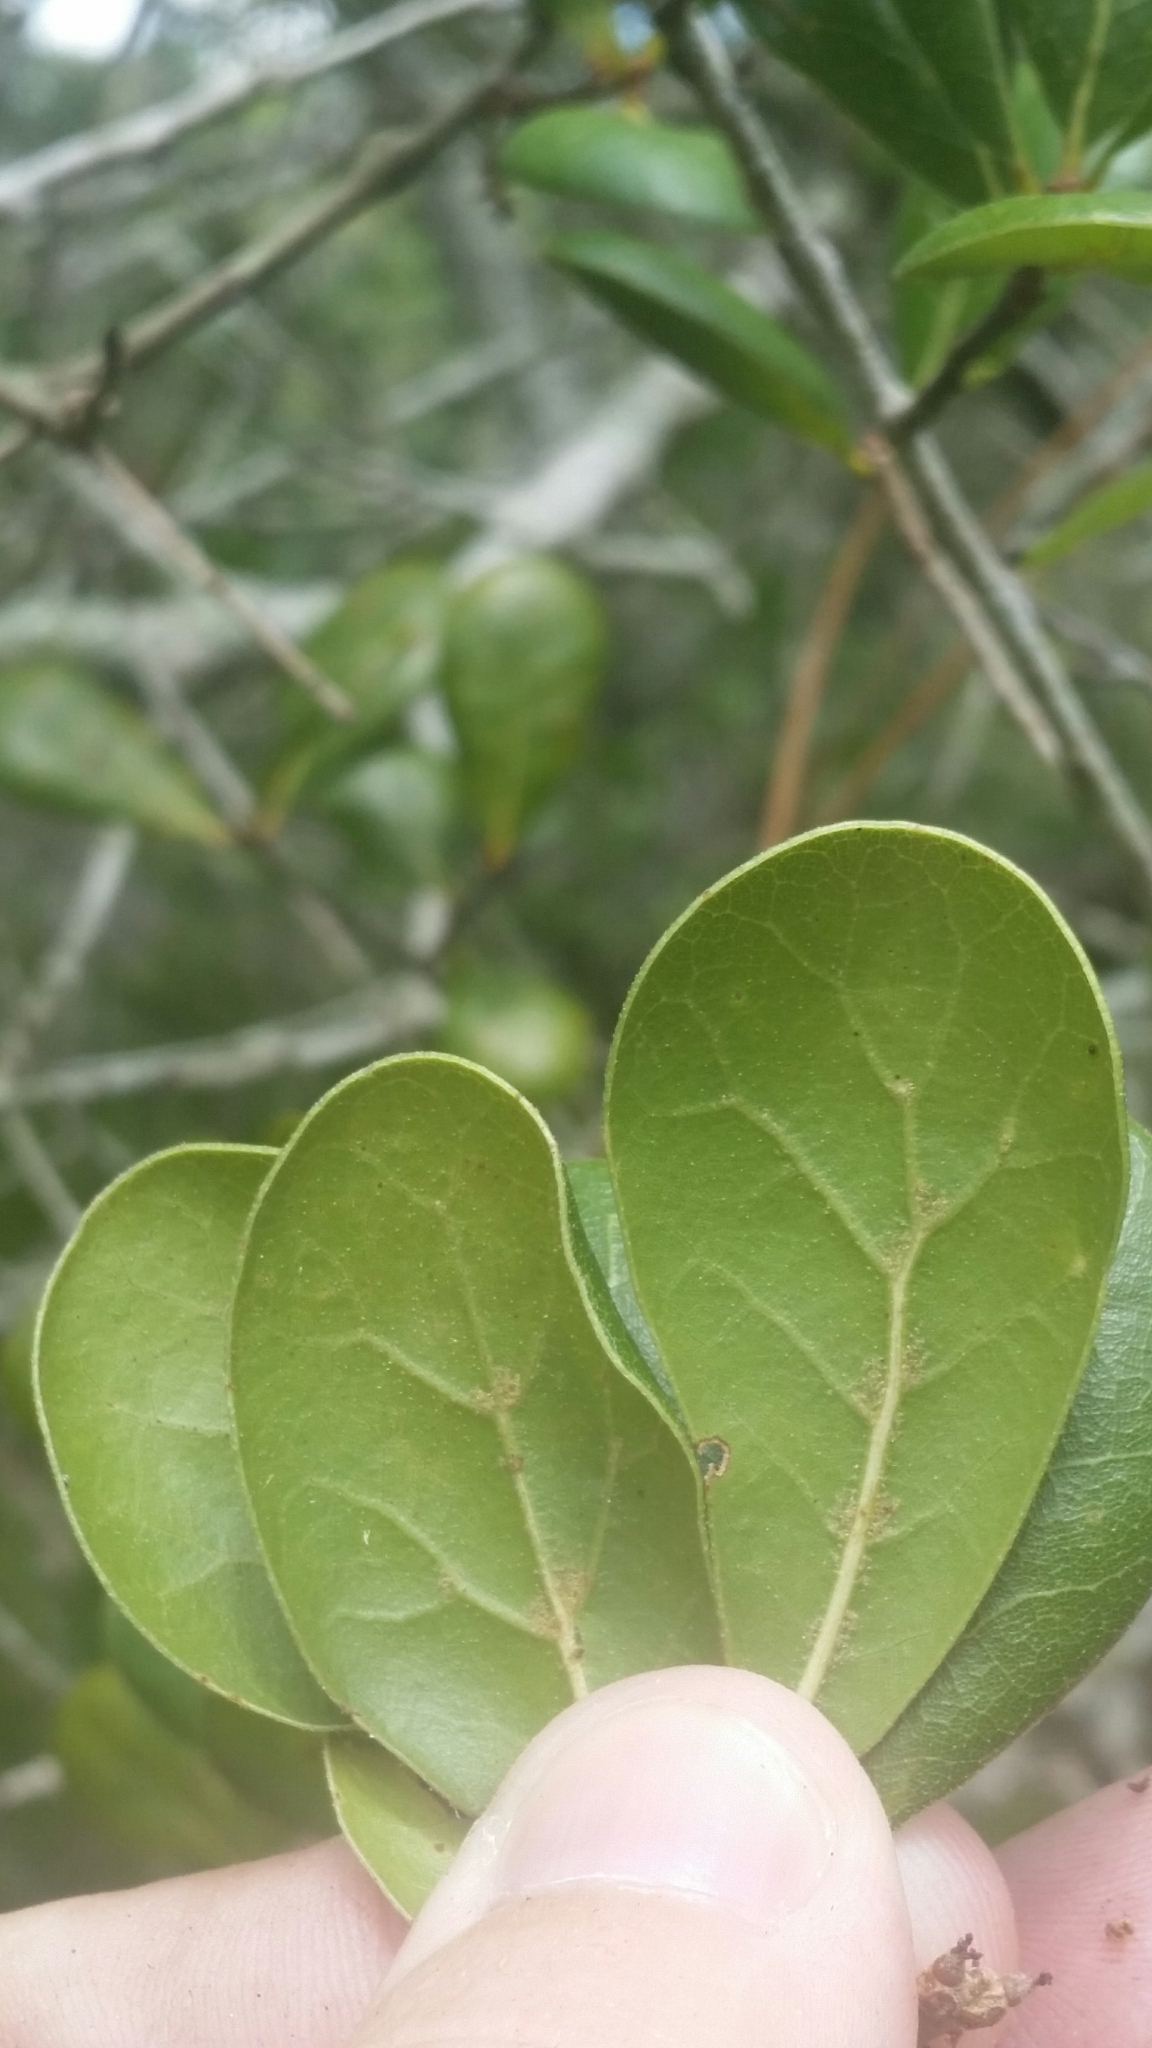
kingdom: Plantae
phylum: Tracheophyta
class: Magnoliopsida
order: Fagales
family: Fagaceae
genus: Quercus
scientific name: Quercus myrtifolia
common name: Myrtle oak
